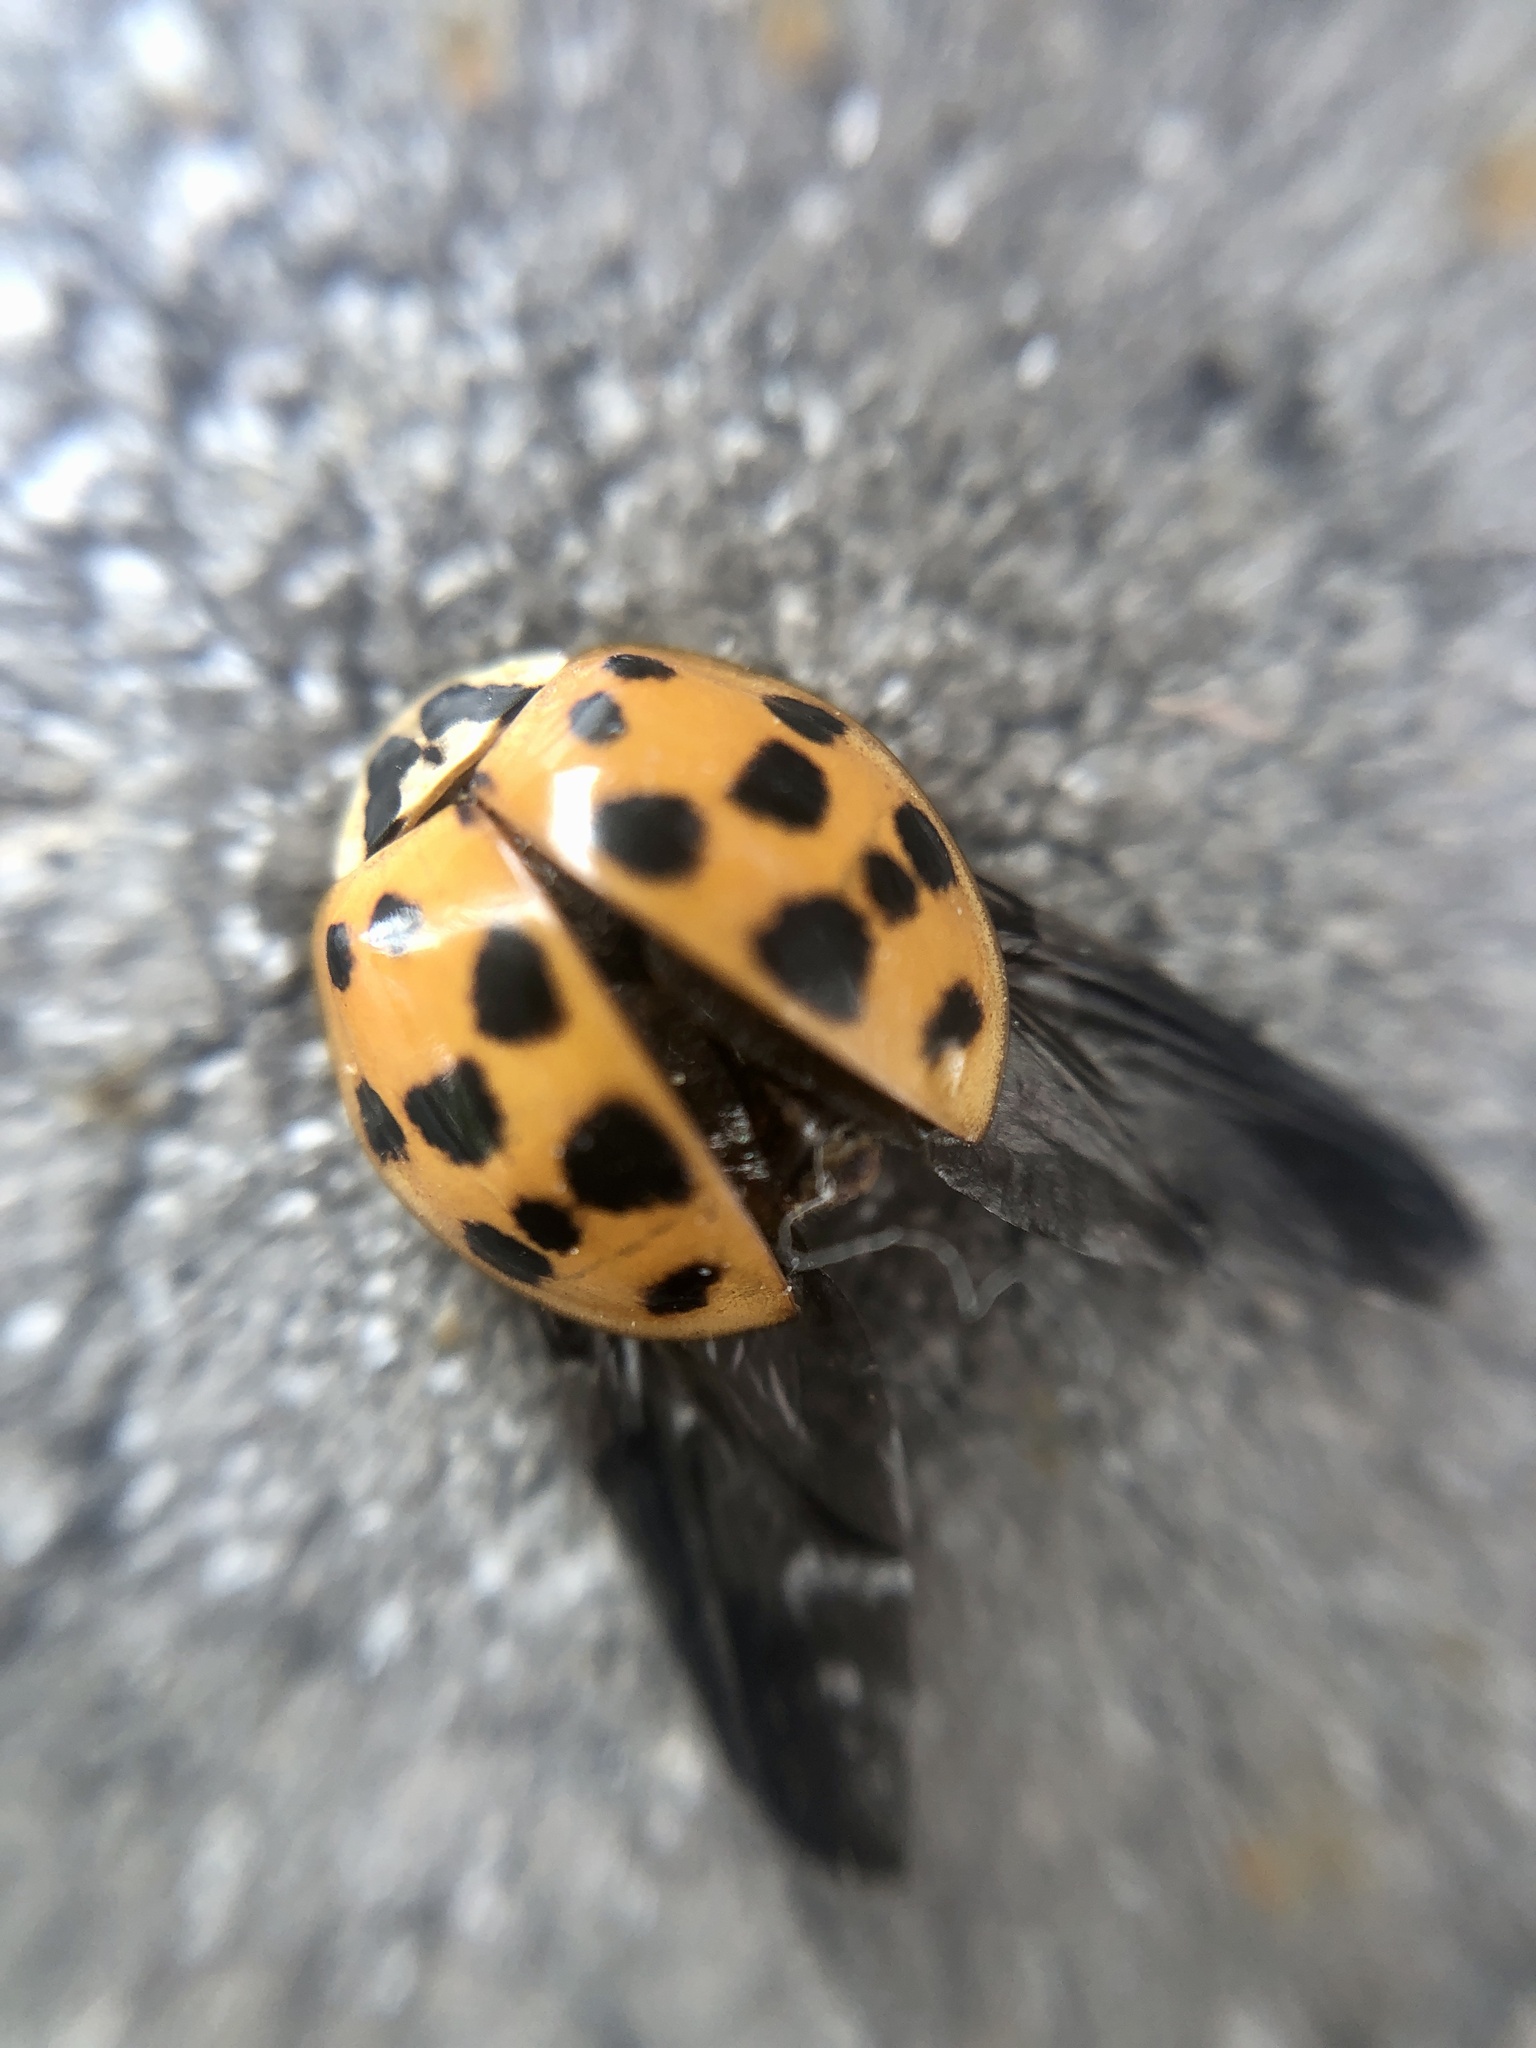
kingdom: Animalia
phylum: Arthropoda
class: Insecta
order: Coleoptera
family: Coccinellidae
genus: Harmonia
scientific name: Harmonia axyridis
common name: Harlequin ladybird
